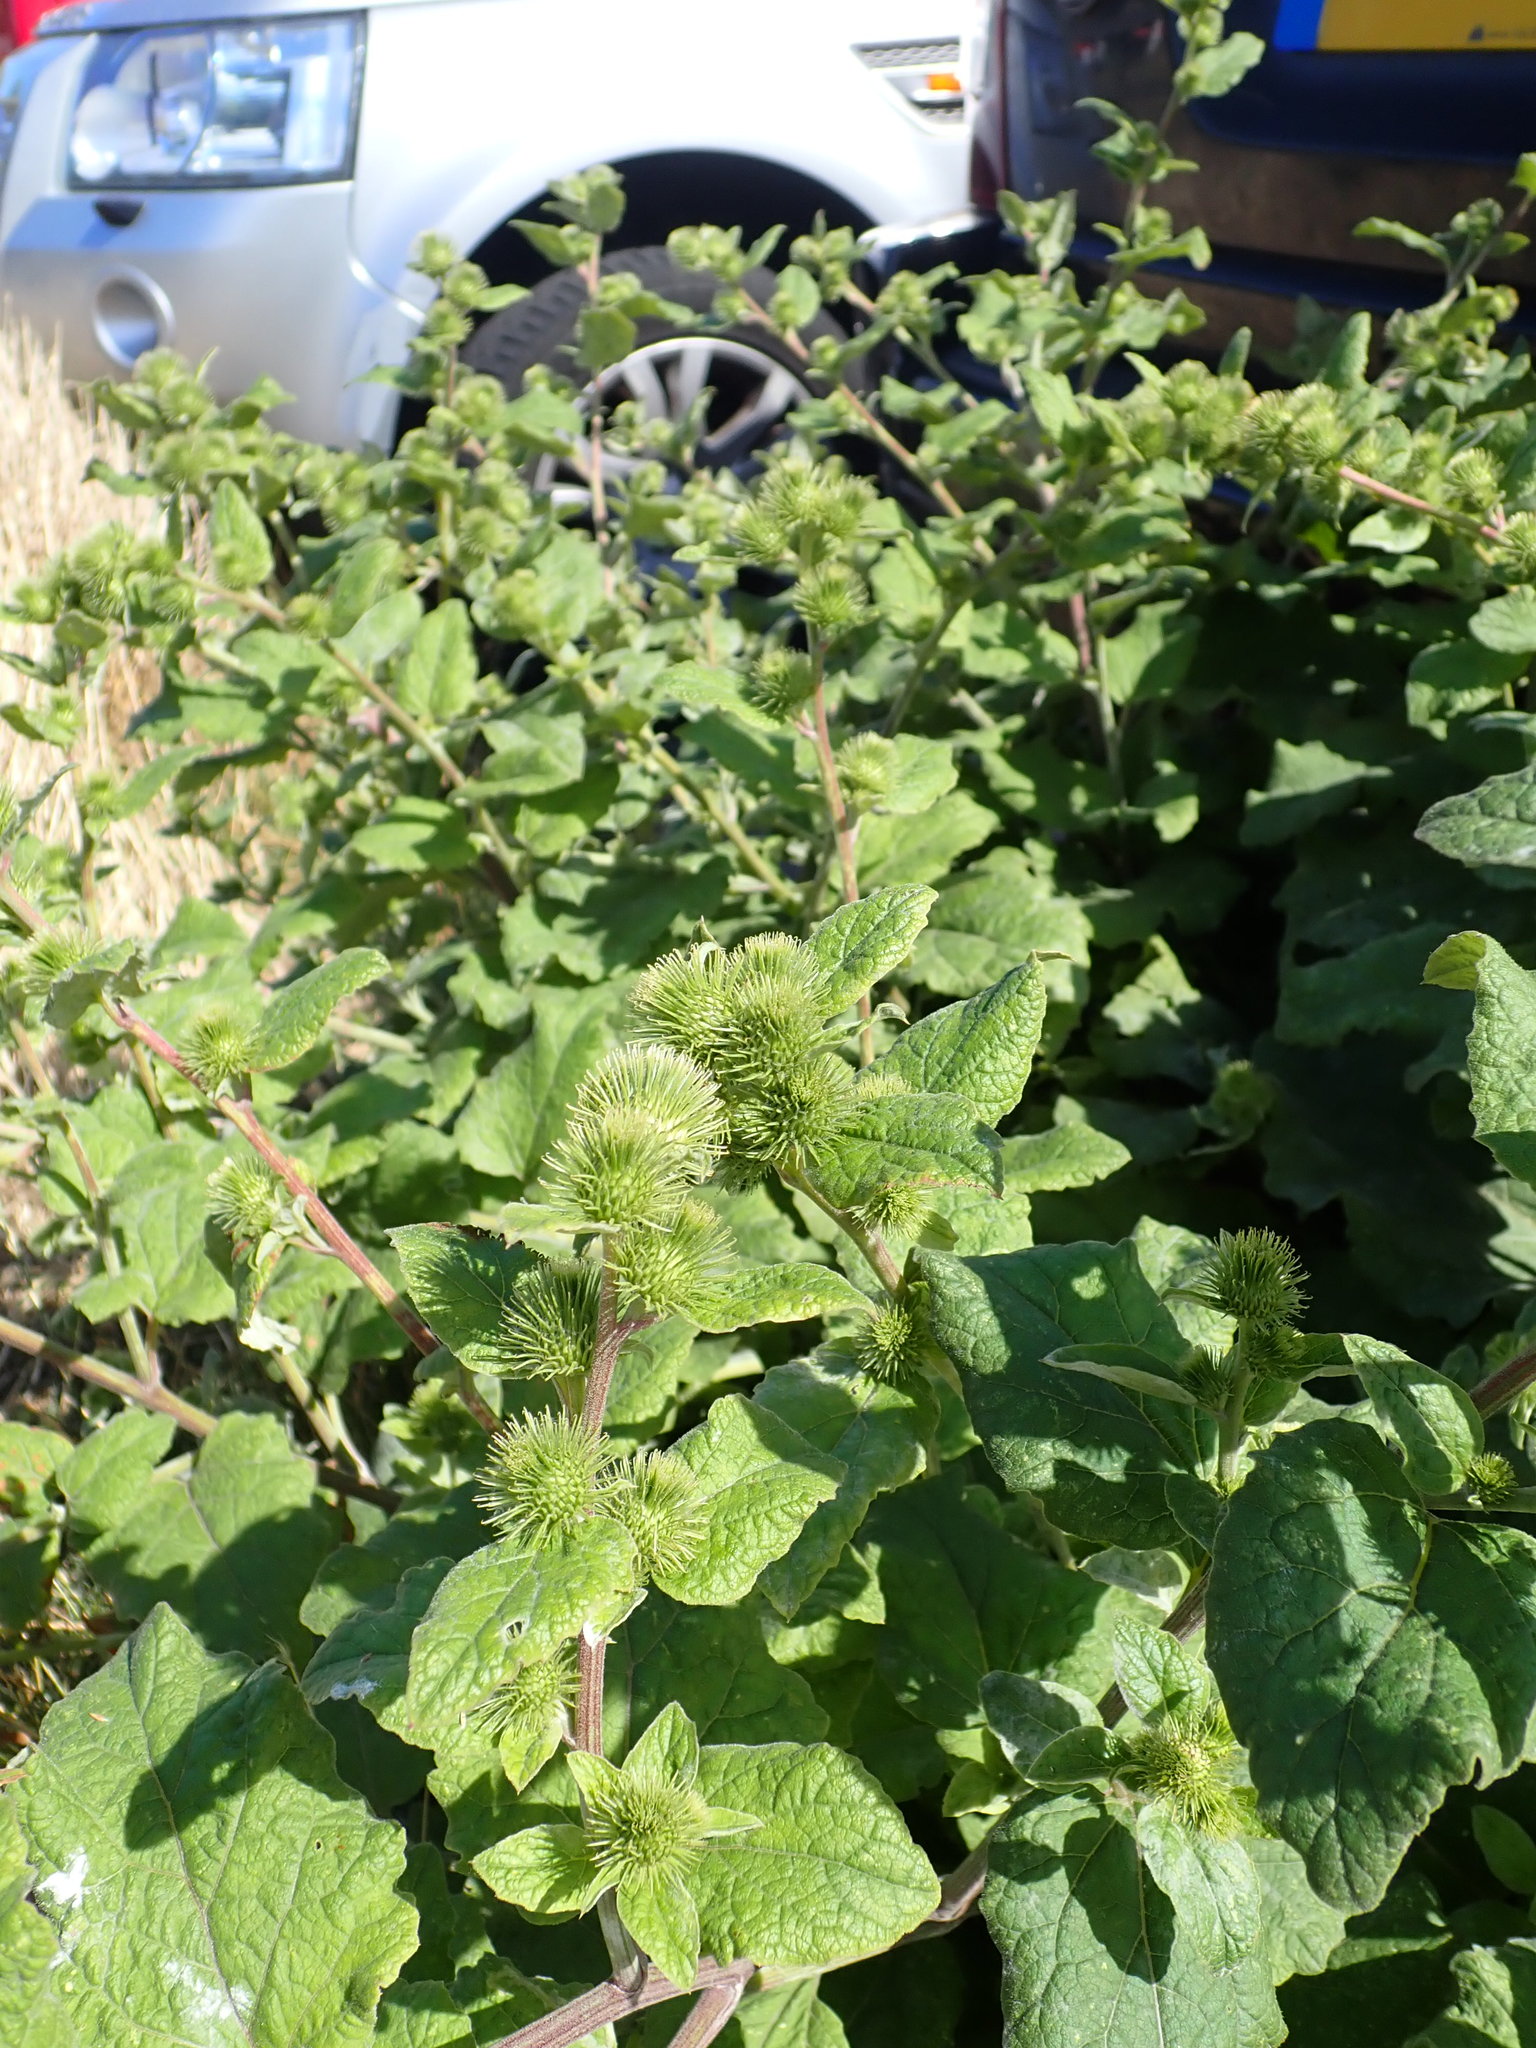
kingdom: Plantae
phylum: Tracheophyta
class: Magnoliopsida
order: Asterales
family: Asteraceae
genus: Arctium
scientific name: Arctium minus
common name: Lesser burdock
